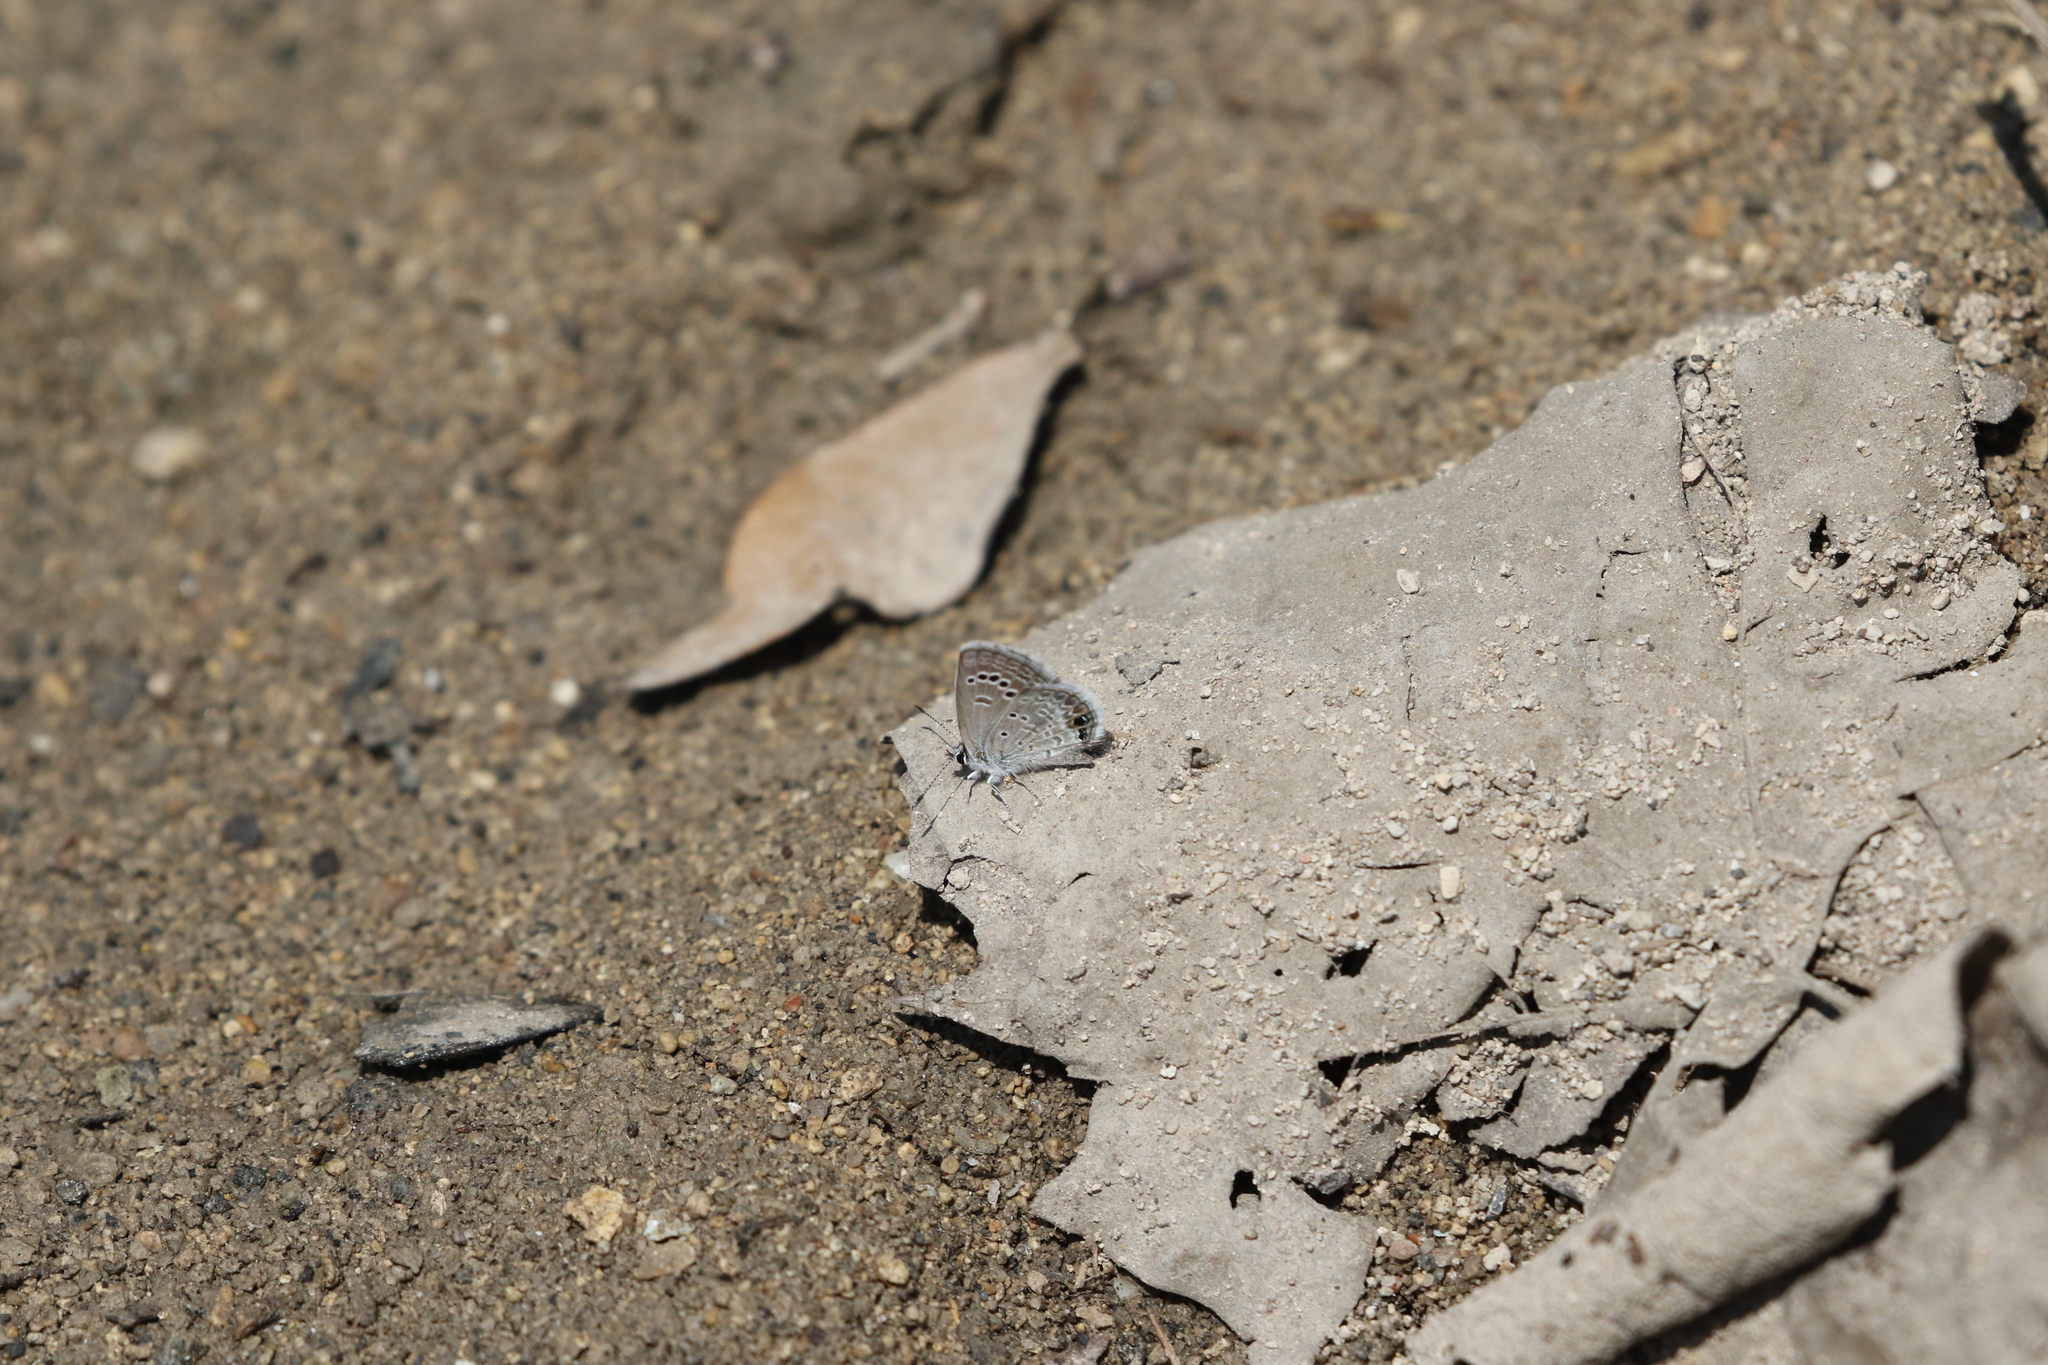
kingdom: Animalia
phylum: Arthropoda
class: Insecta
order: Lepidoptera
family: Lycaenidae
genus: Echinargus
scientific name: Echinargus isola
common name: Reakirt's blue
